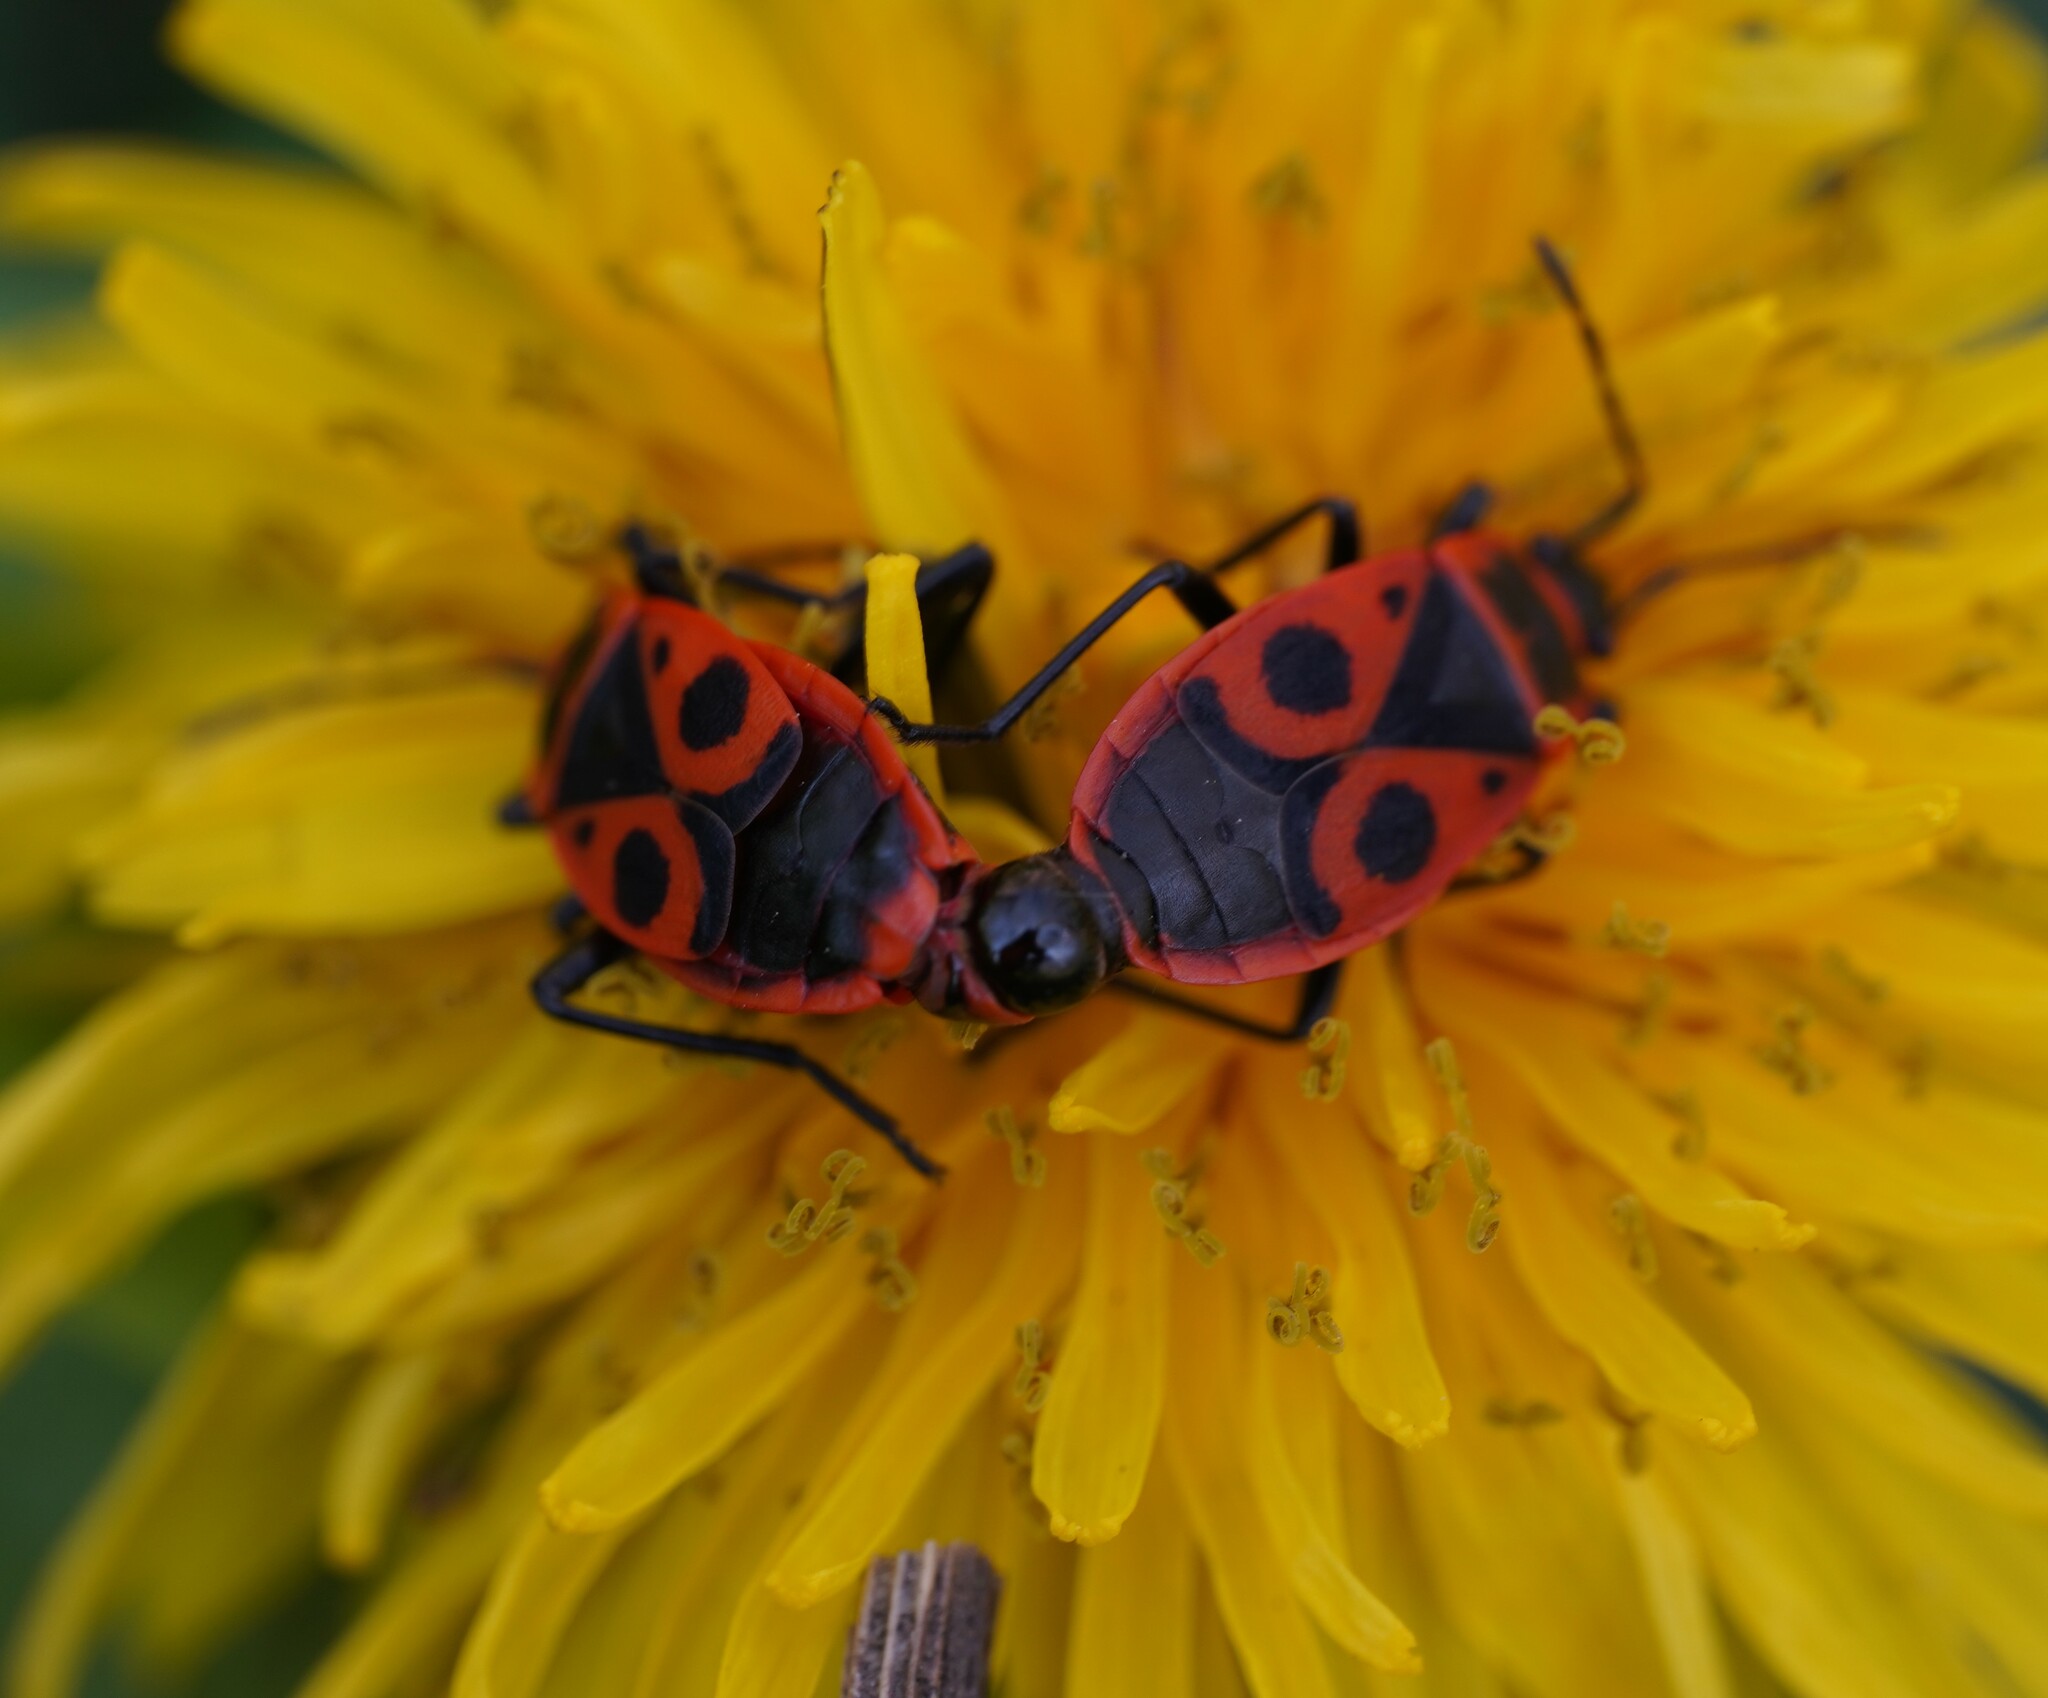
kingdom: Animalia
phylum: Arthropoda
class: Insecta
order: Hemiptera
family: Pyrrhocoridae
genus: Pyrrhocoris
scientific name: Pyrrhocoris apterus
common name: Firebug
